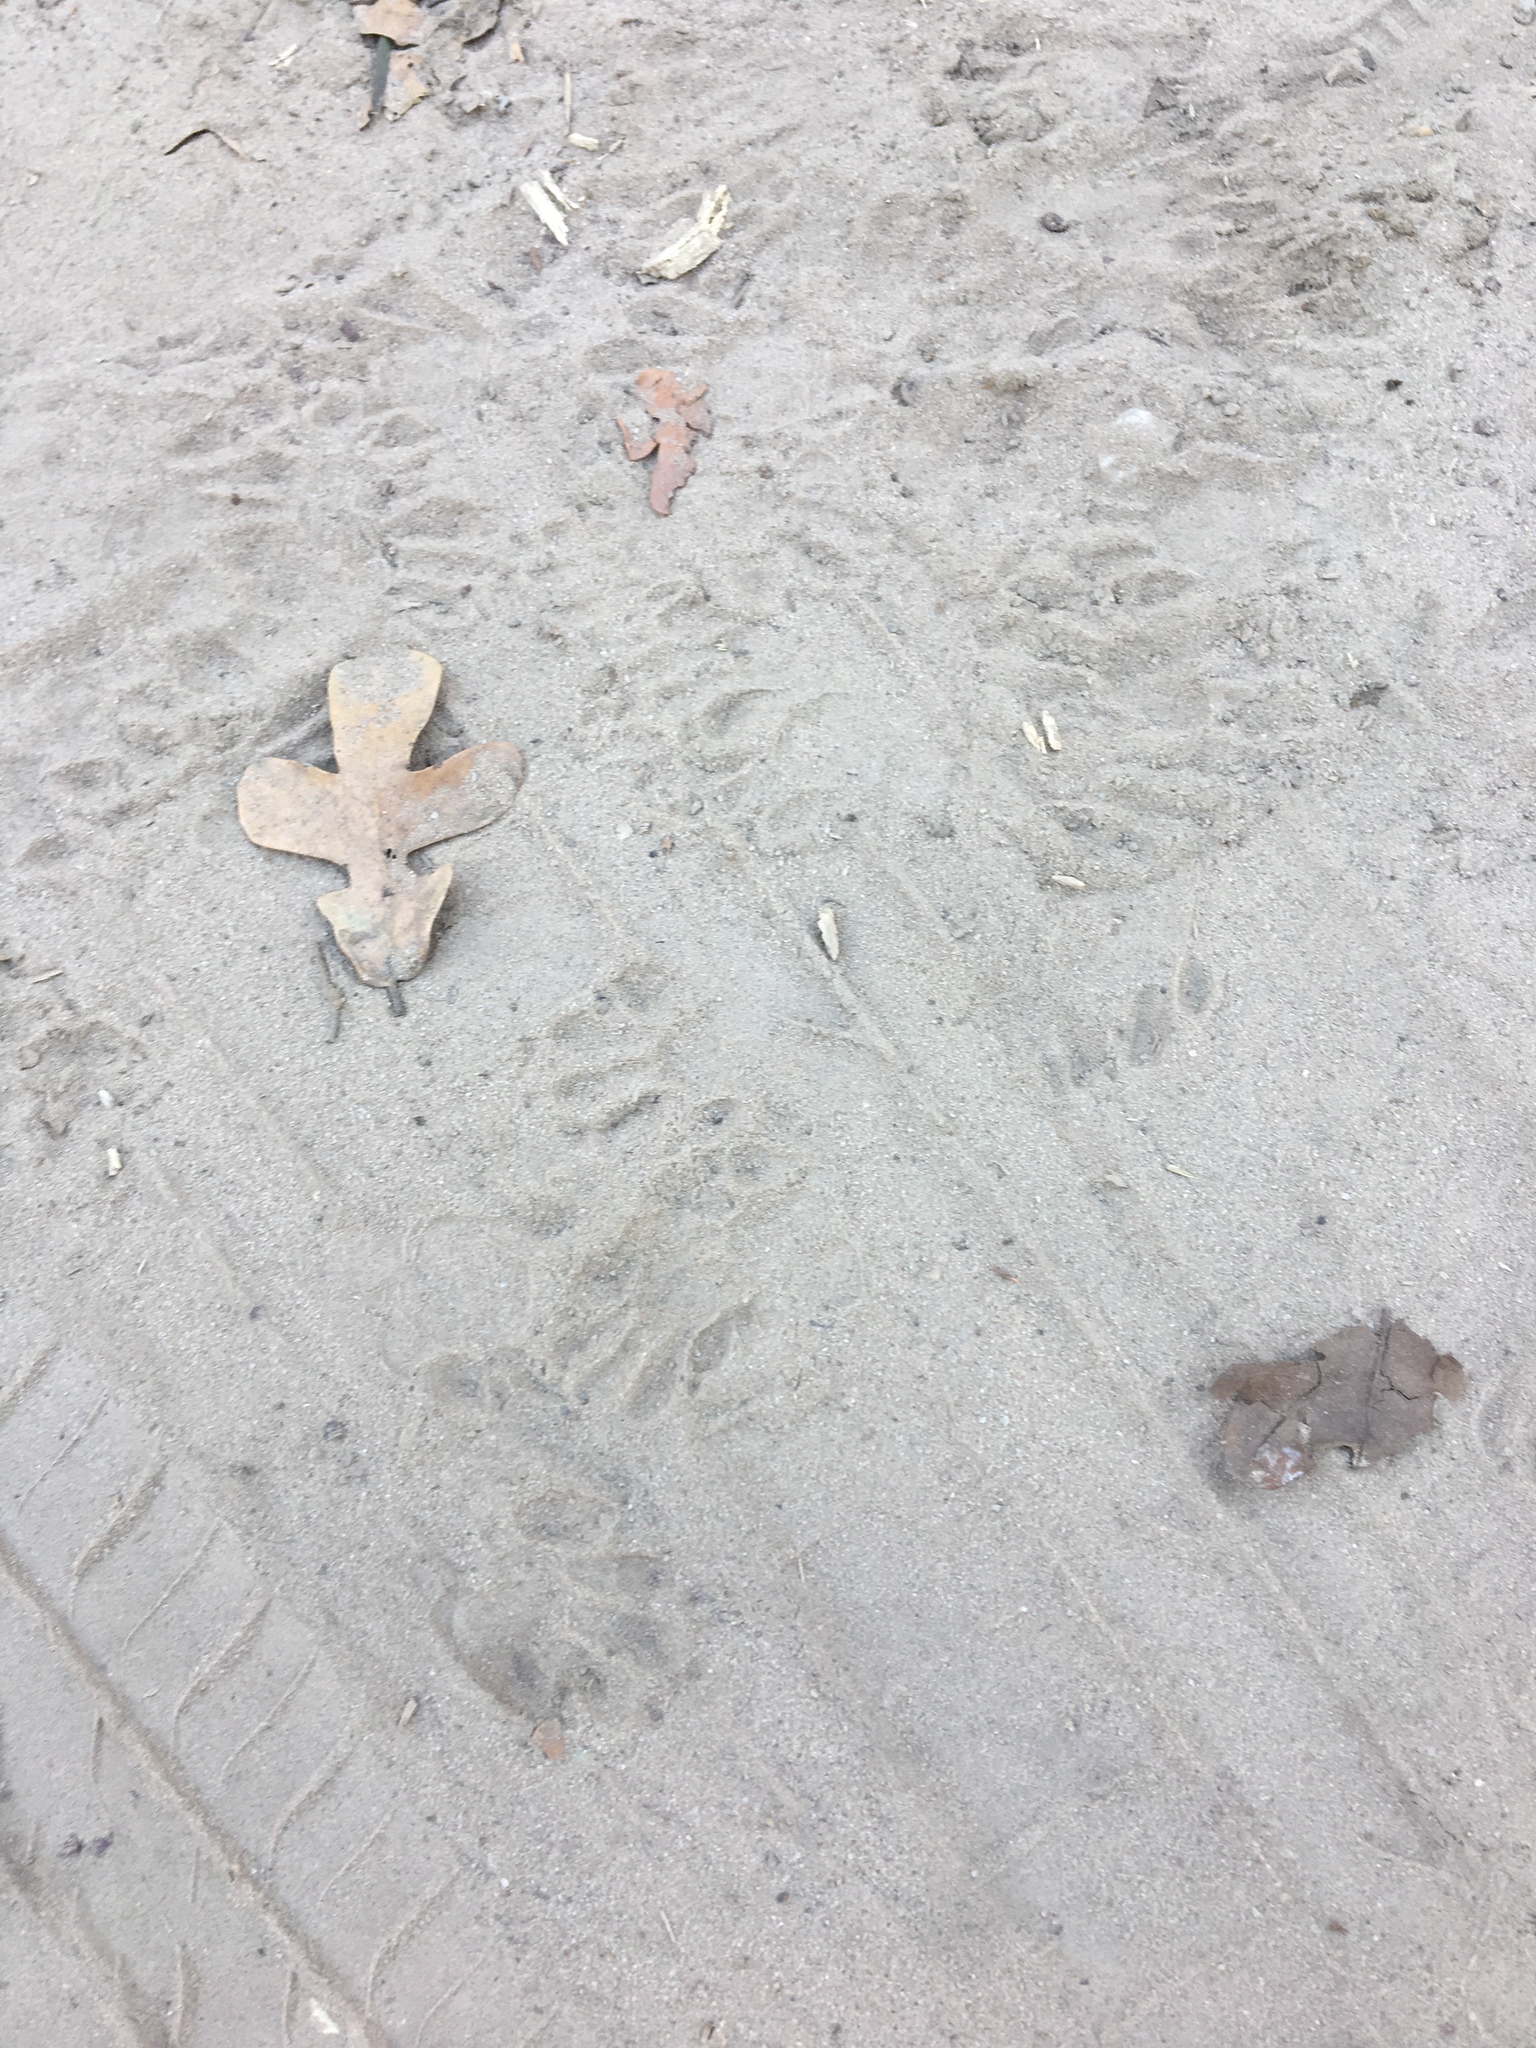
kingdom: Animalia
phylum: Chordata
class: Mammalia
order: Carnivora
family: Procyonidae
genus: Procyon
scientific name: Procyon lotor
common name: Raccoon
